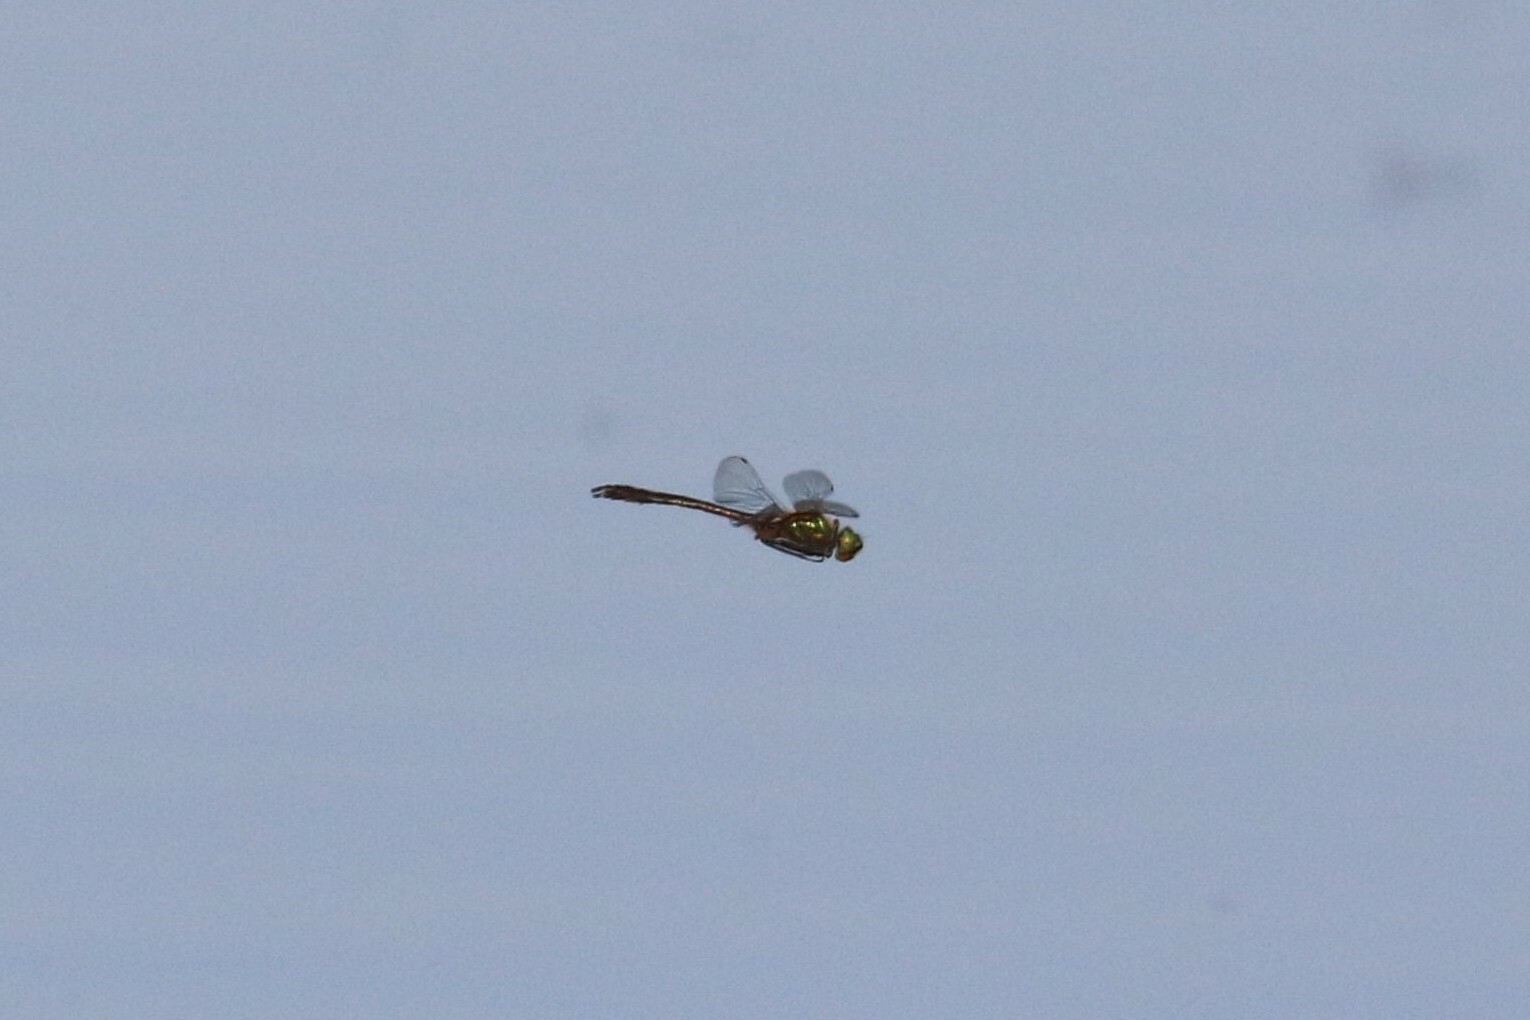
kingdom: Animalia
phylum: Arthropoda
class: Insecta
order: Odonata
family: Corduliidae
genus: Cordulia
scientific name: Cordulia aenea
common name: Downy emerald
